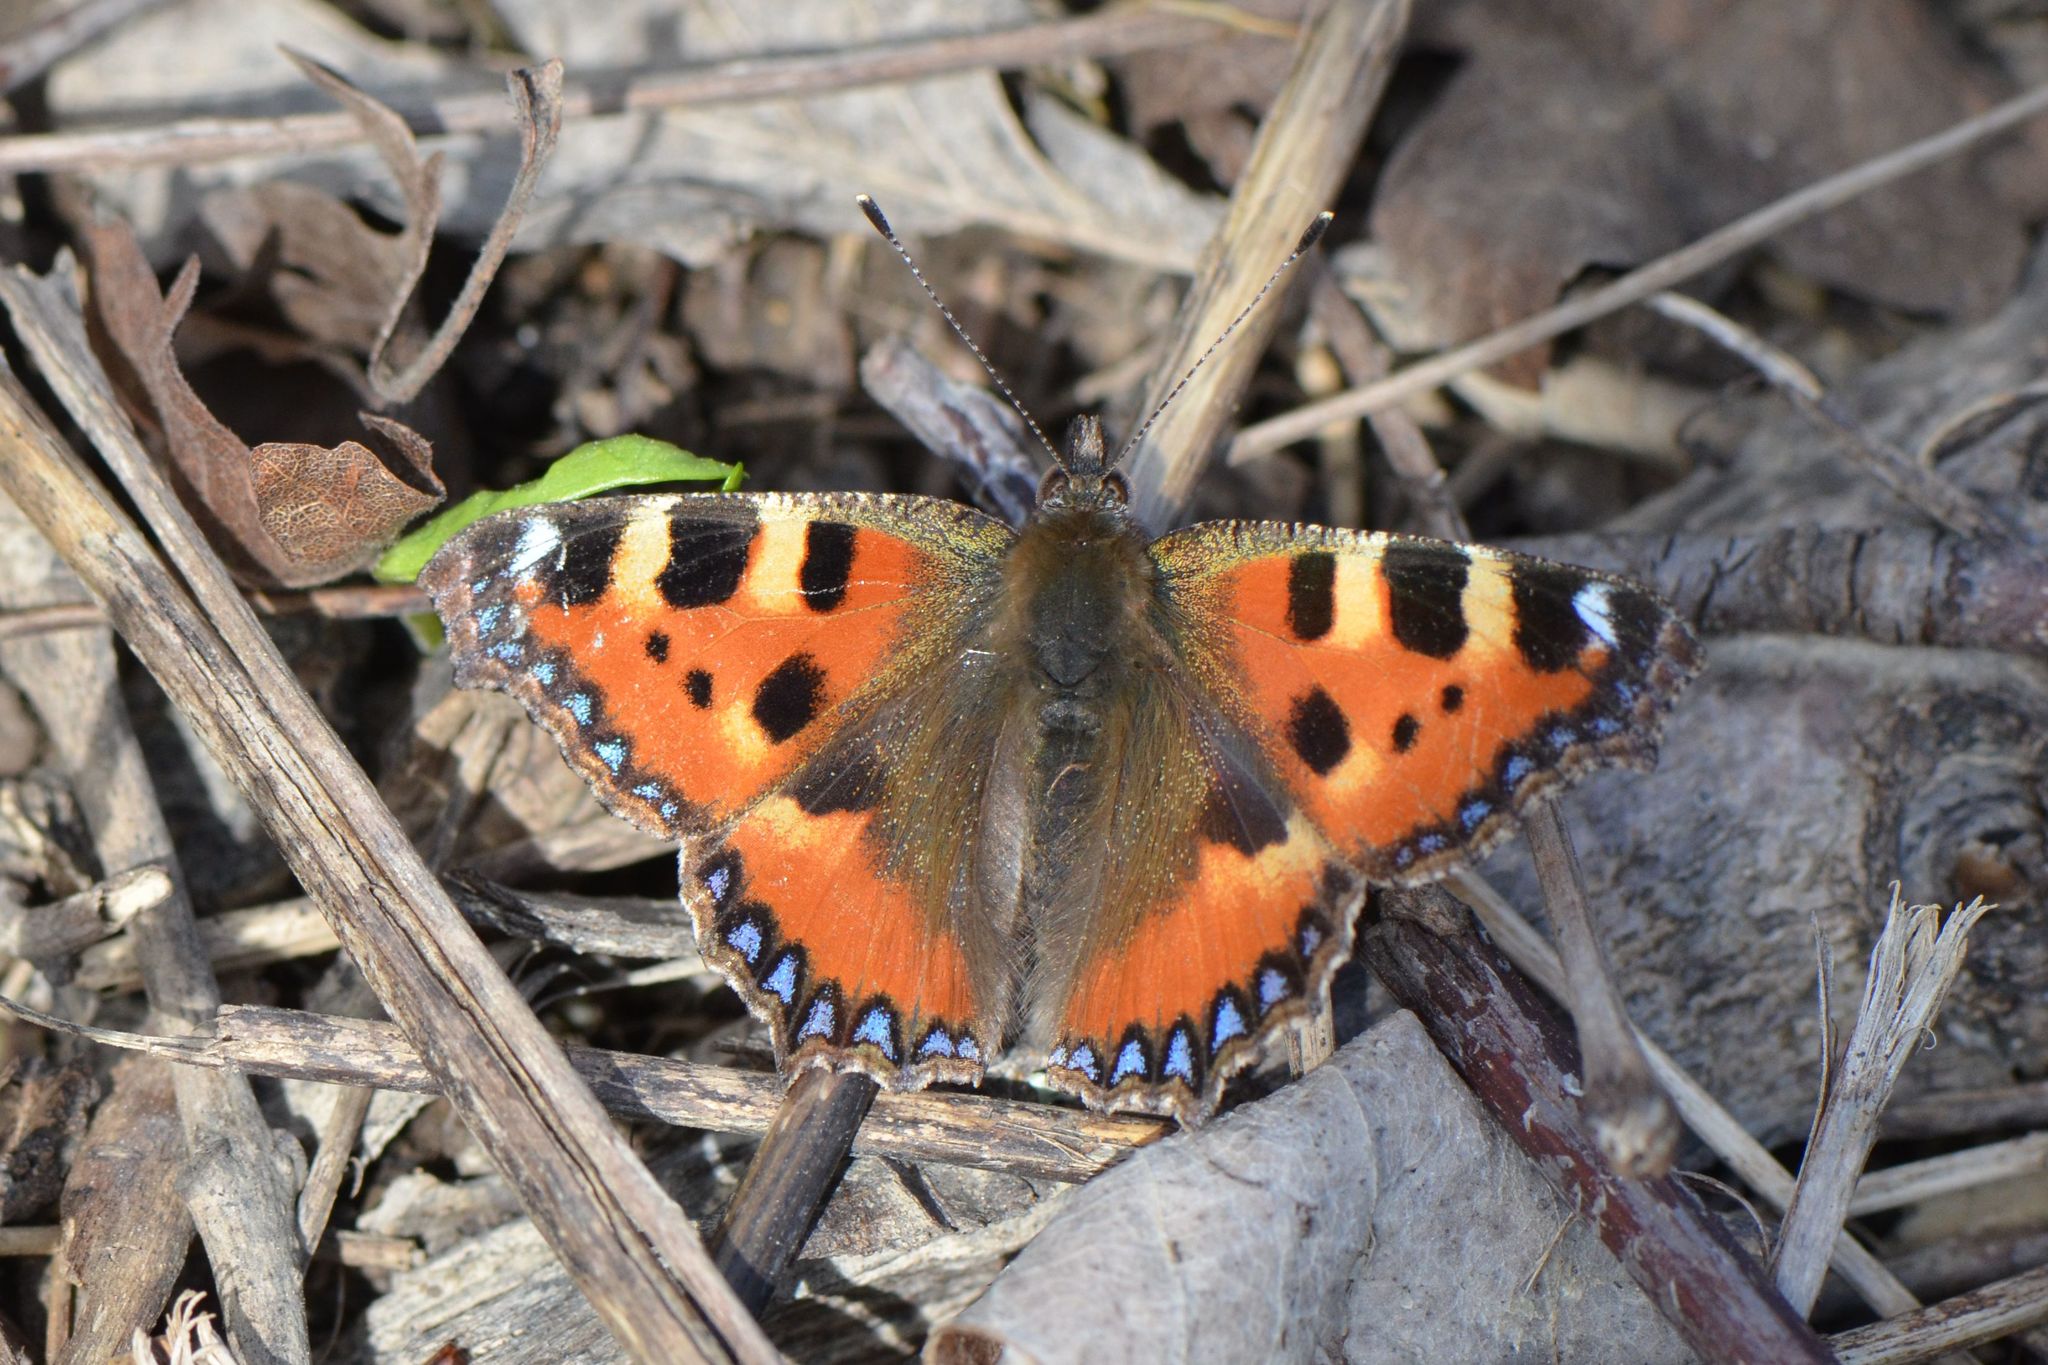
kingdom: Animalia
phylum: Arthropoda
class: Insecta
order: Lepidoptera
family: Nymphalidae
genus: Aglais
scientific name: Aglais urticae
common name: Small tortoiseshell
